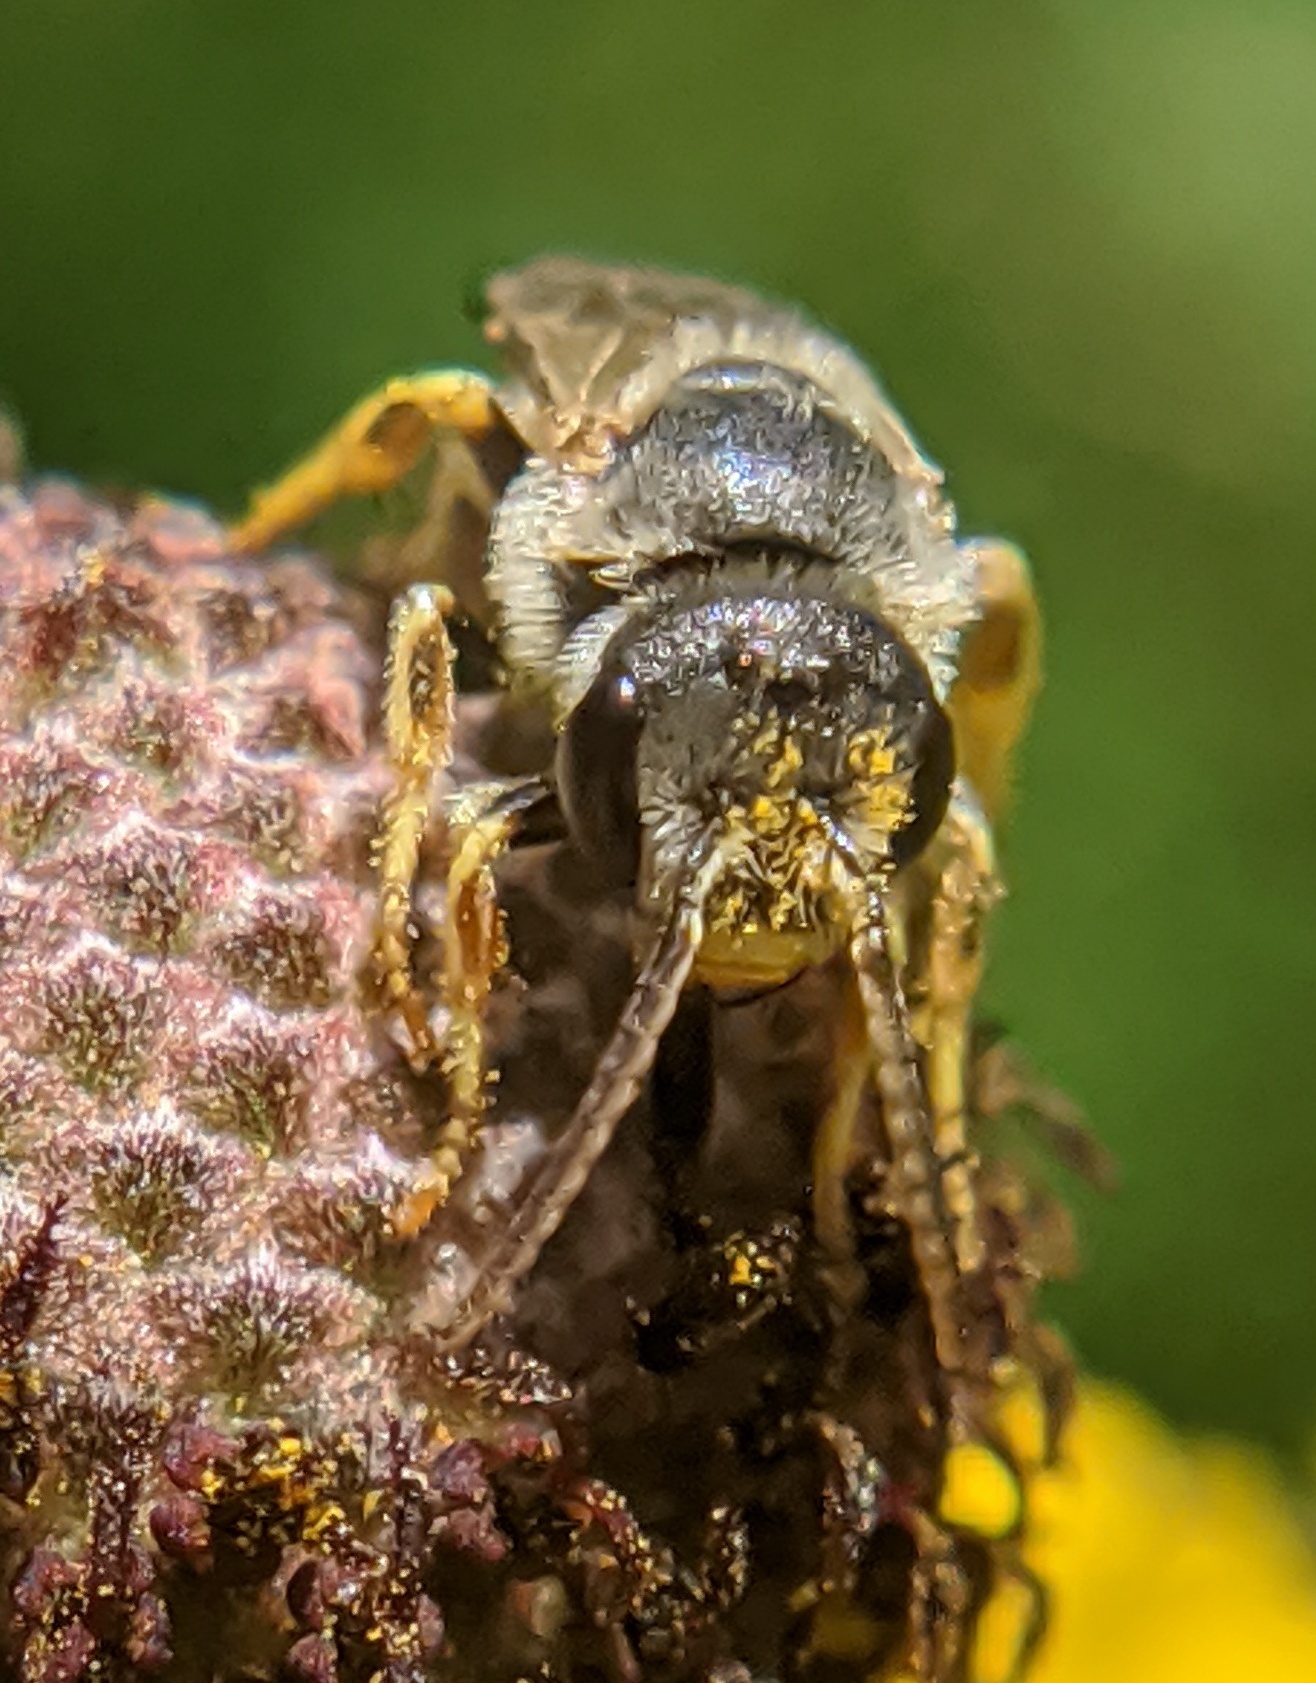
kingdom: Animalia
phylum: Arthropoda
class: Insecta
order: Hymenoptera
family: Halictidae
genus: Halictus
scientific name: Halictus ligatus
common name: Ligated furrow bee
